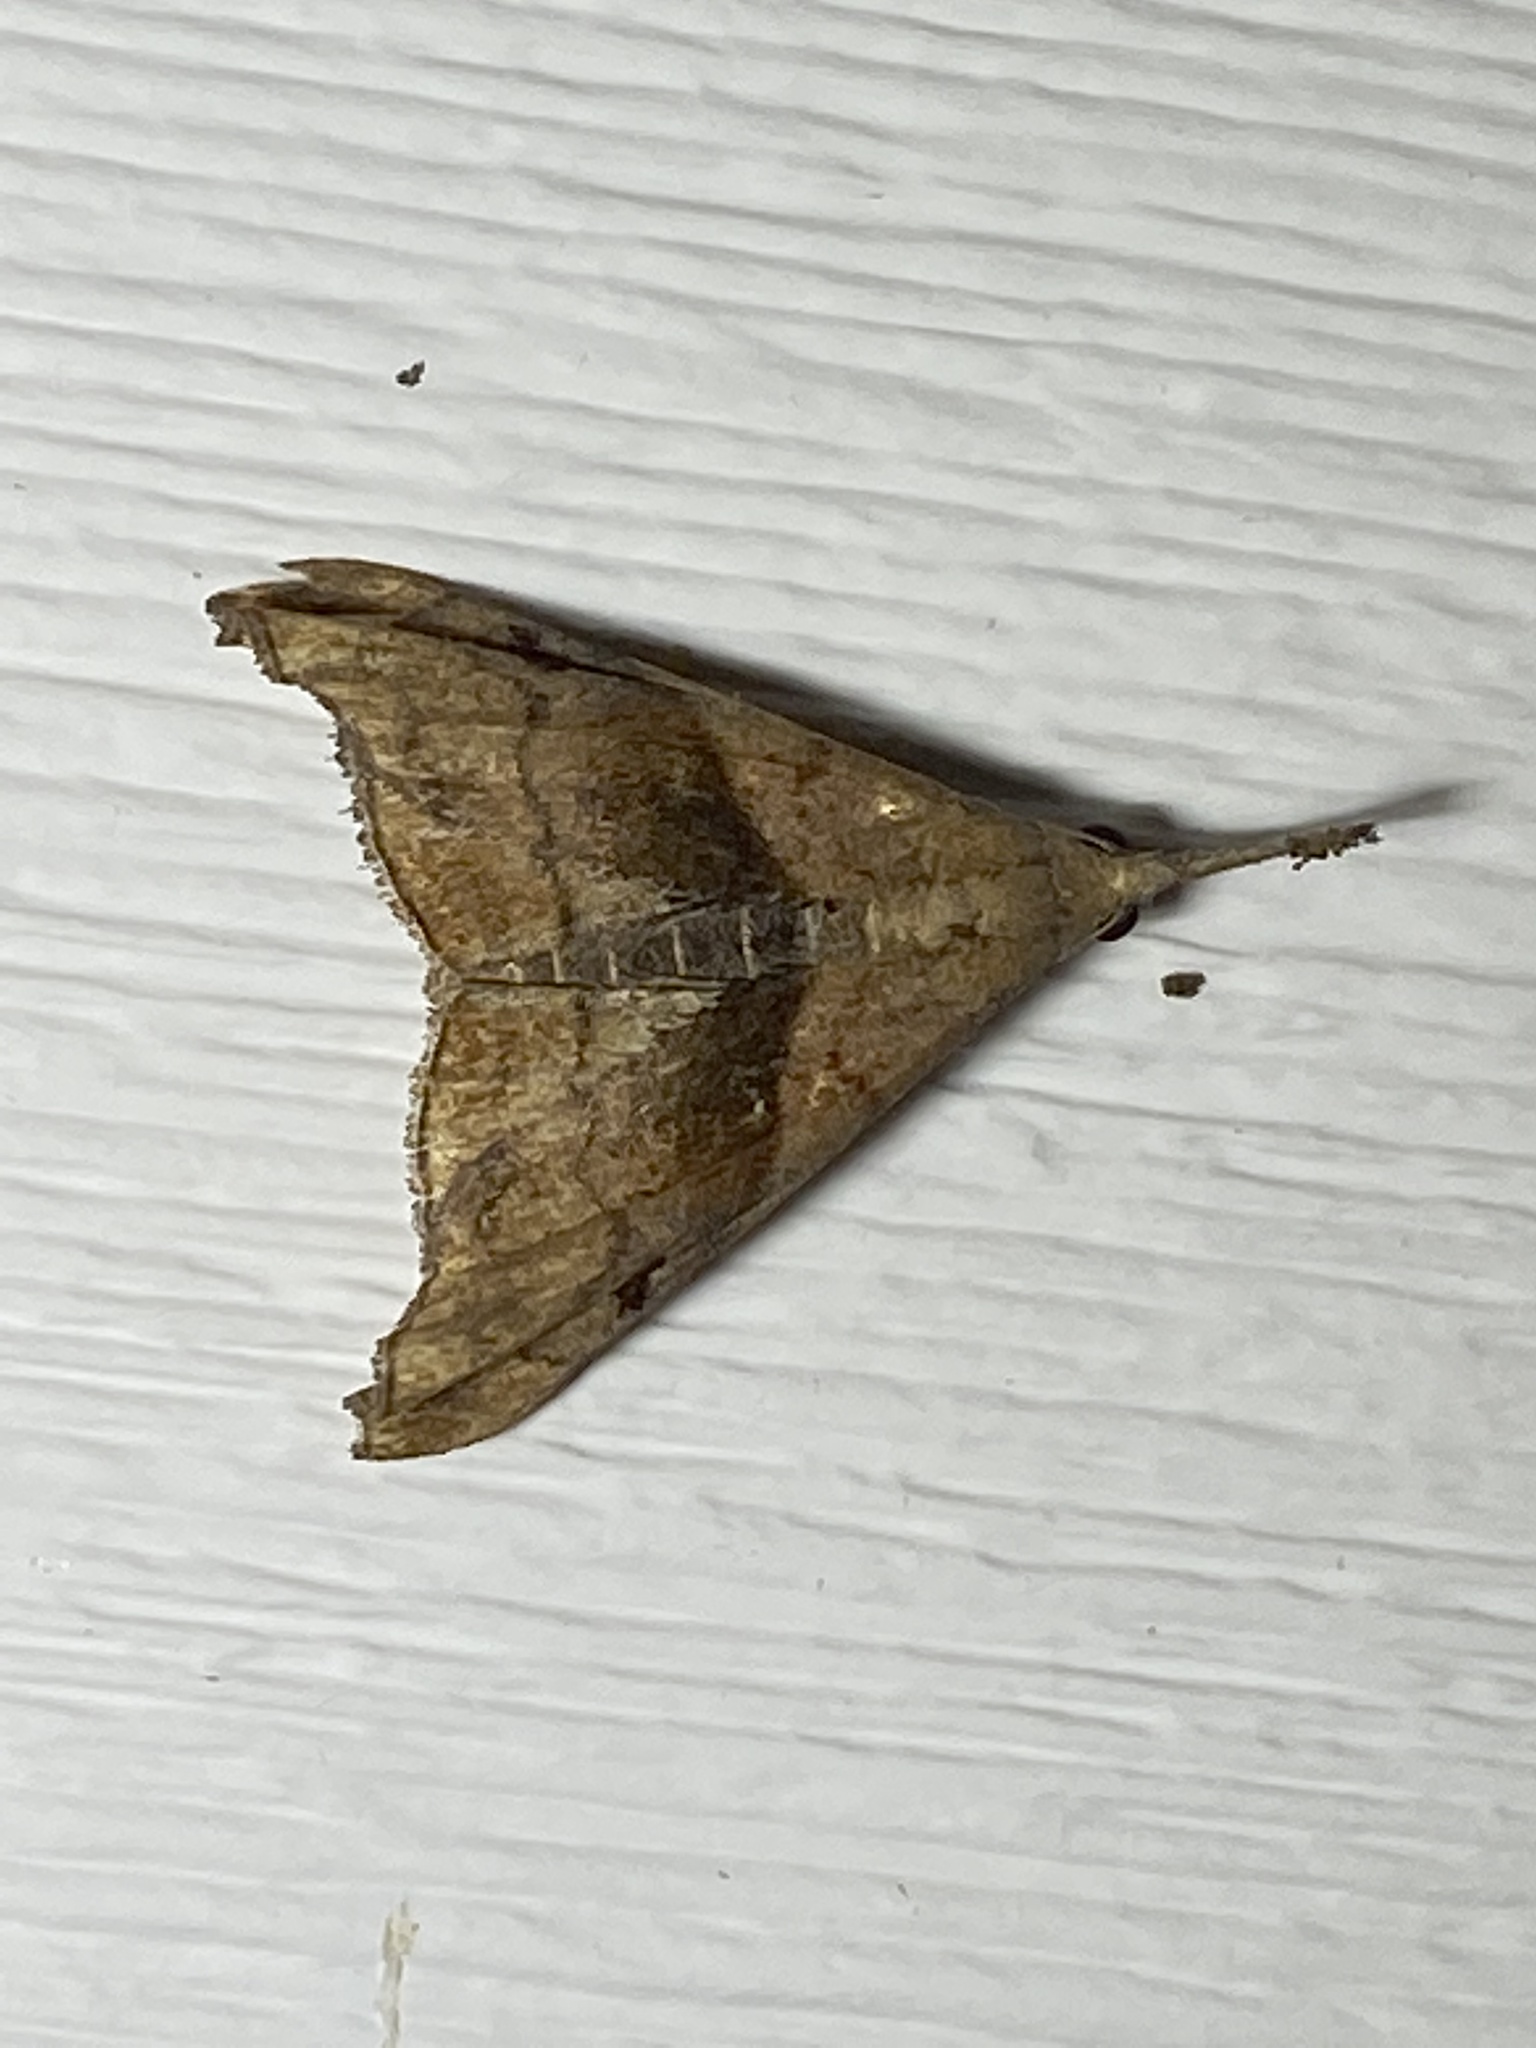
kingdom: Animalia
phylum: Arthropoda
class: Insecta
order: Lepidoptera
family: Erebidae
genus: Palthis
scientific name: Palthis angulalis
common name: Dark-spotted palthis moth
